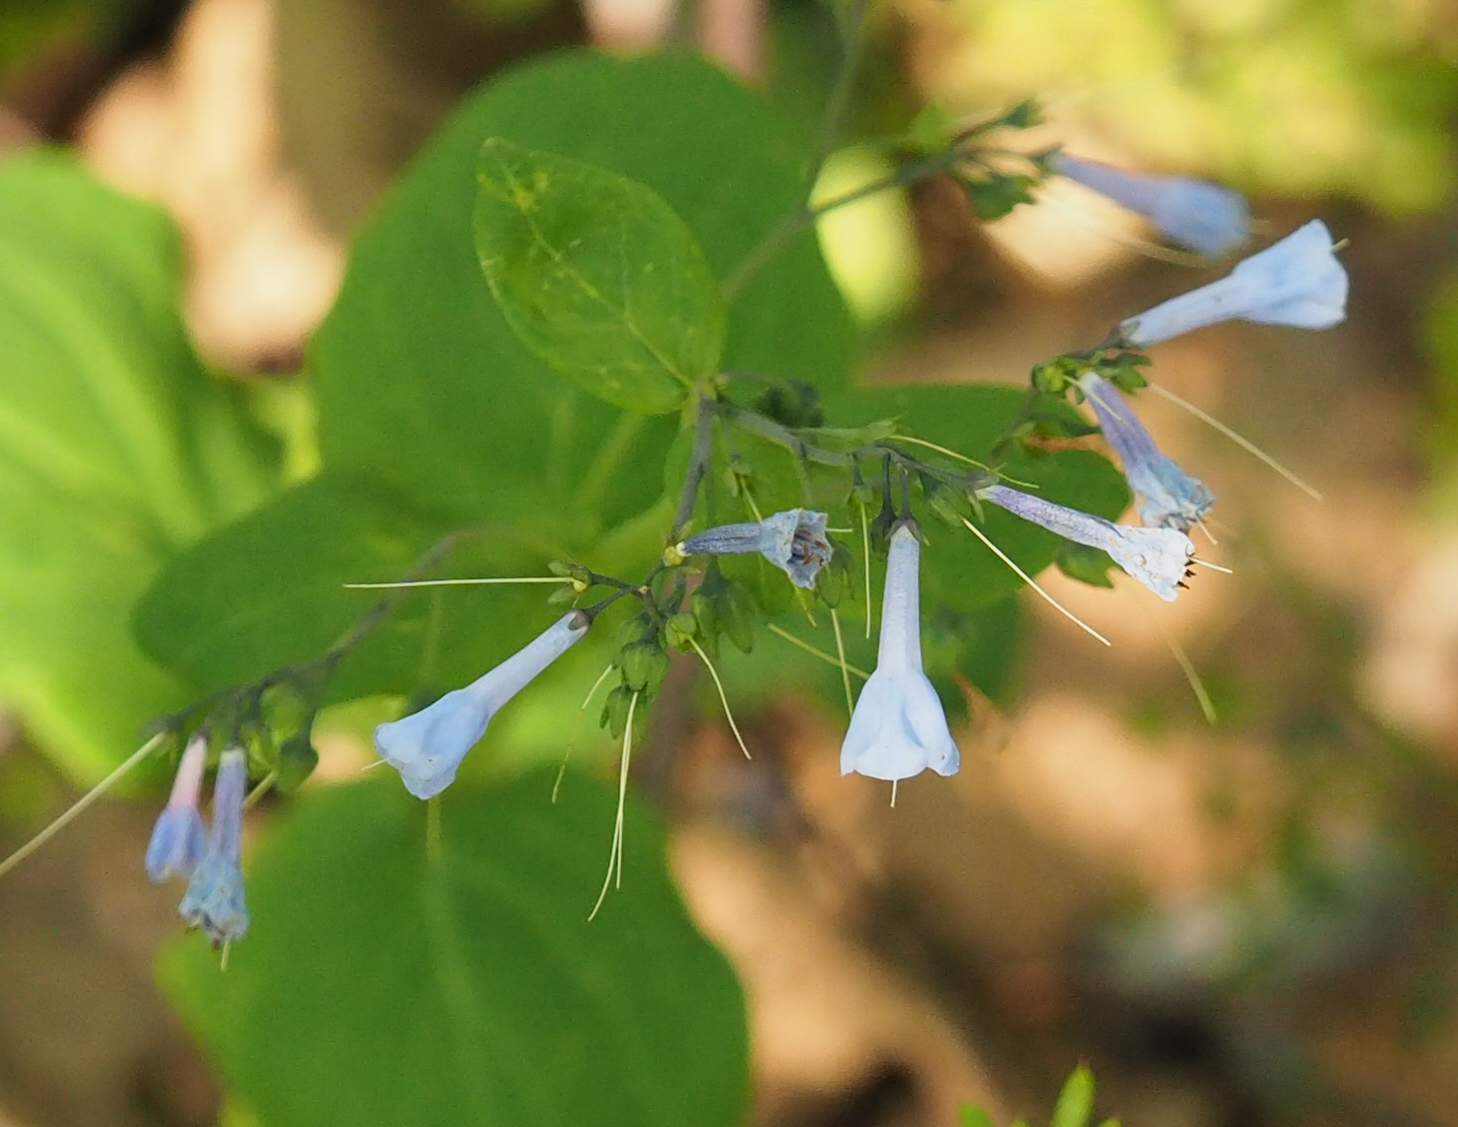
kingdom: Plantae
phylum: Tracheophyta
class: Magnoliopsida
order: Boraginales
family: Boraginaceae
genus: Mertensia
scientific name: Mertensia virginica
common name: Virginia bluebells
